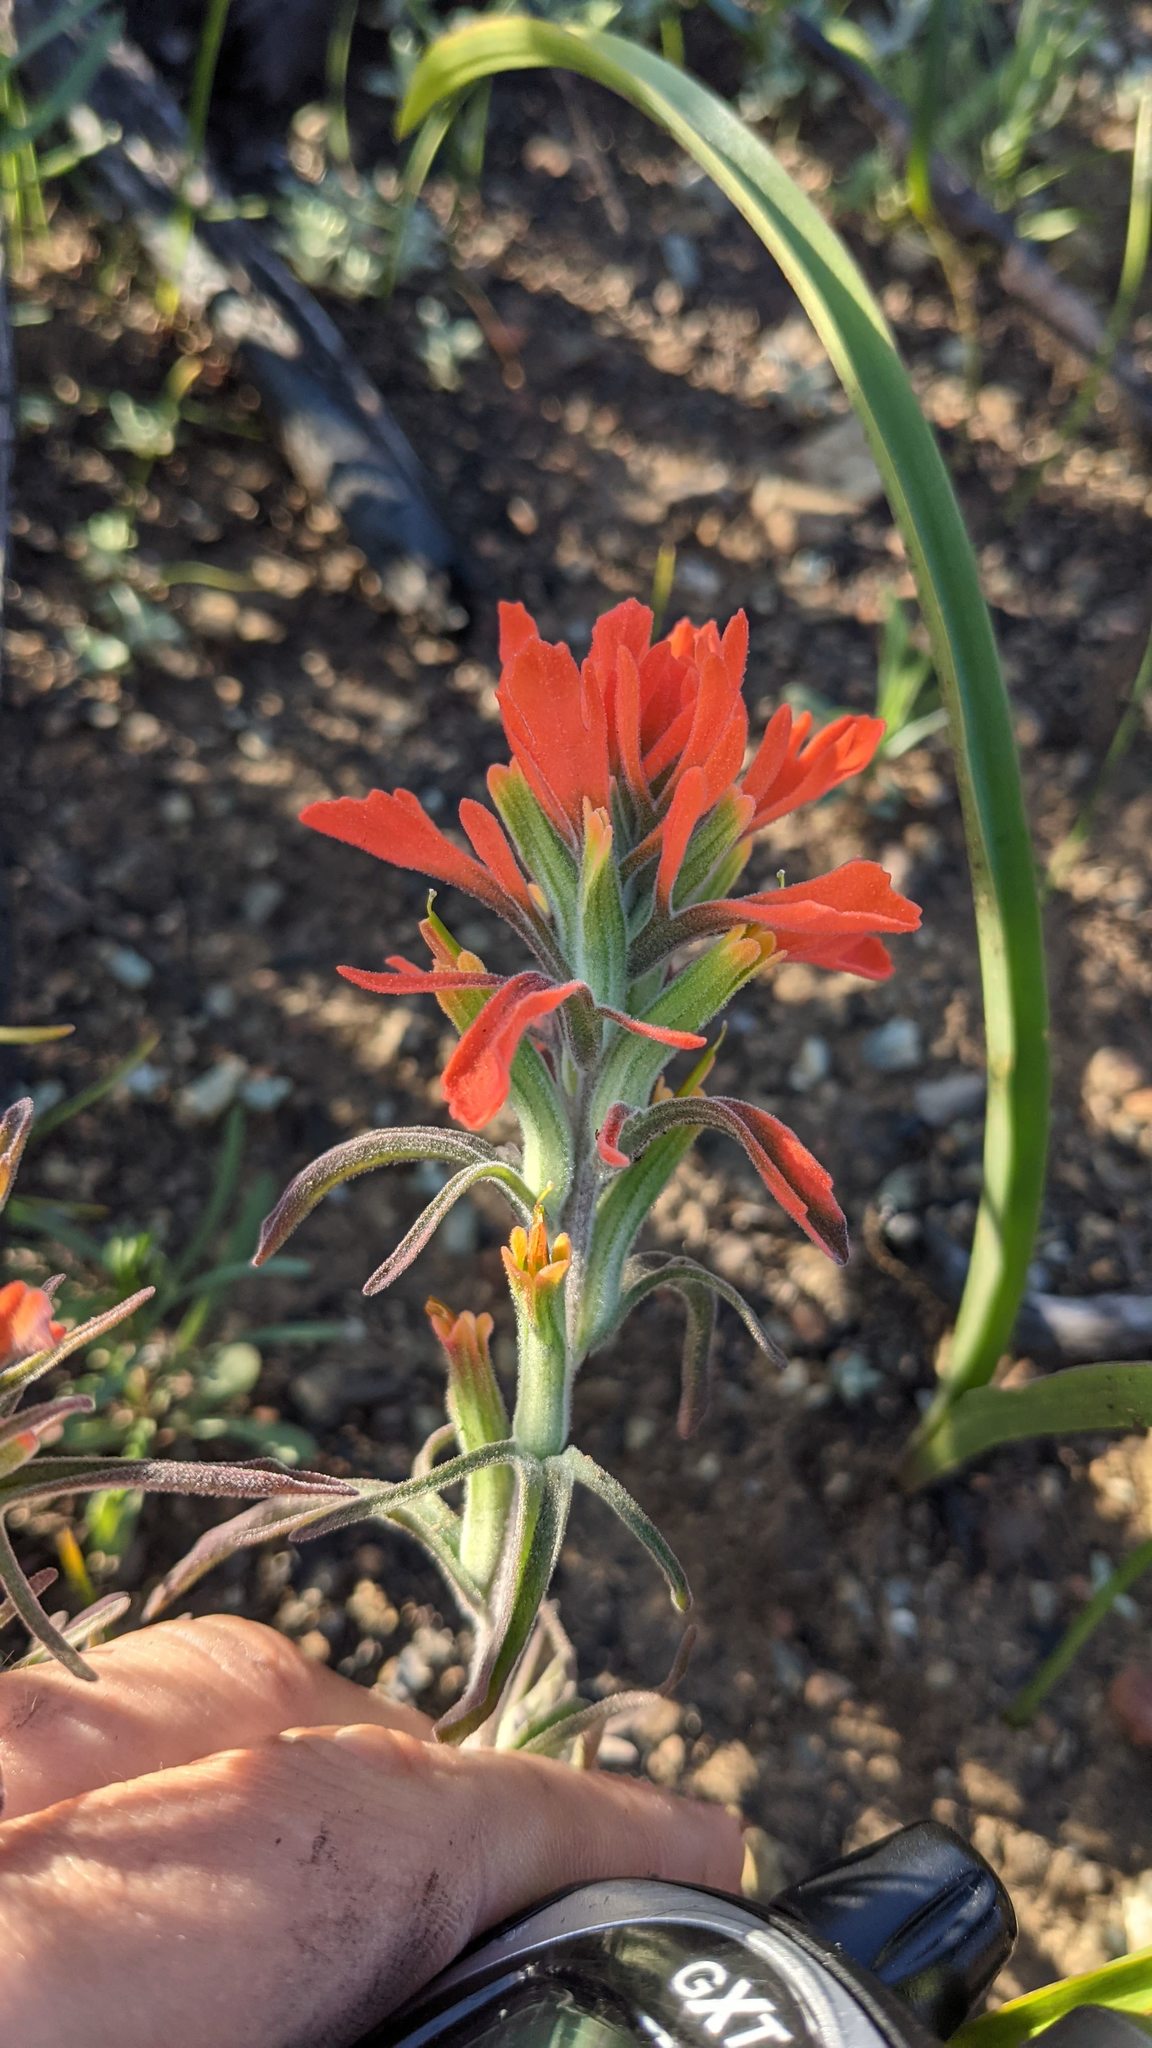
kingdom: Plantae
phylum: Tracheophyta
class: Magnoliopsida
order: Lamiales
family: Orobanchaceae
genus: Castilleja
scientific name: Castilleja foliolosa
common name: Woolly indian paintbrush
